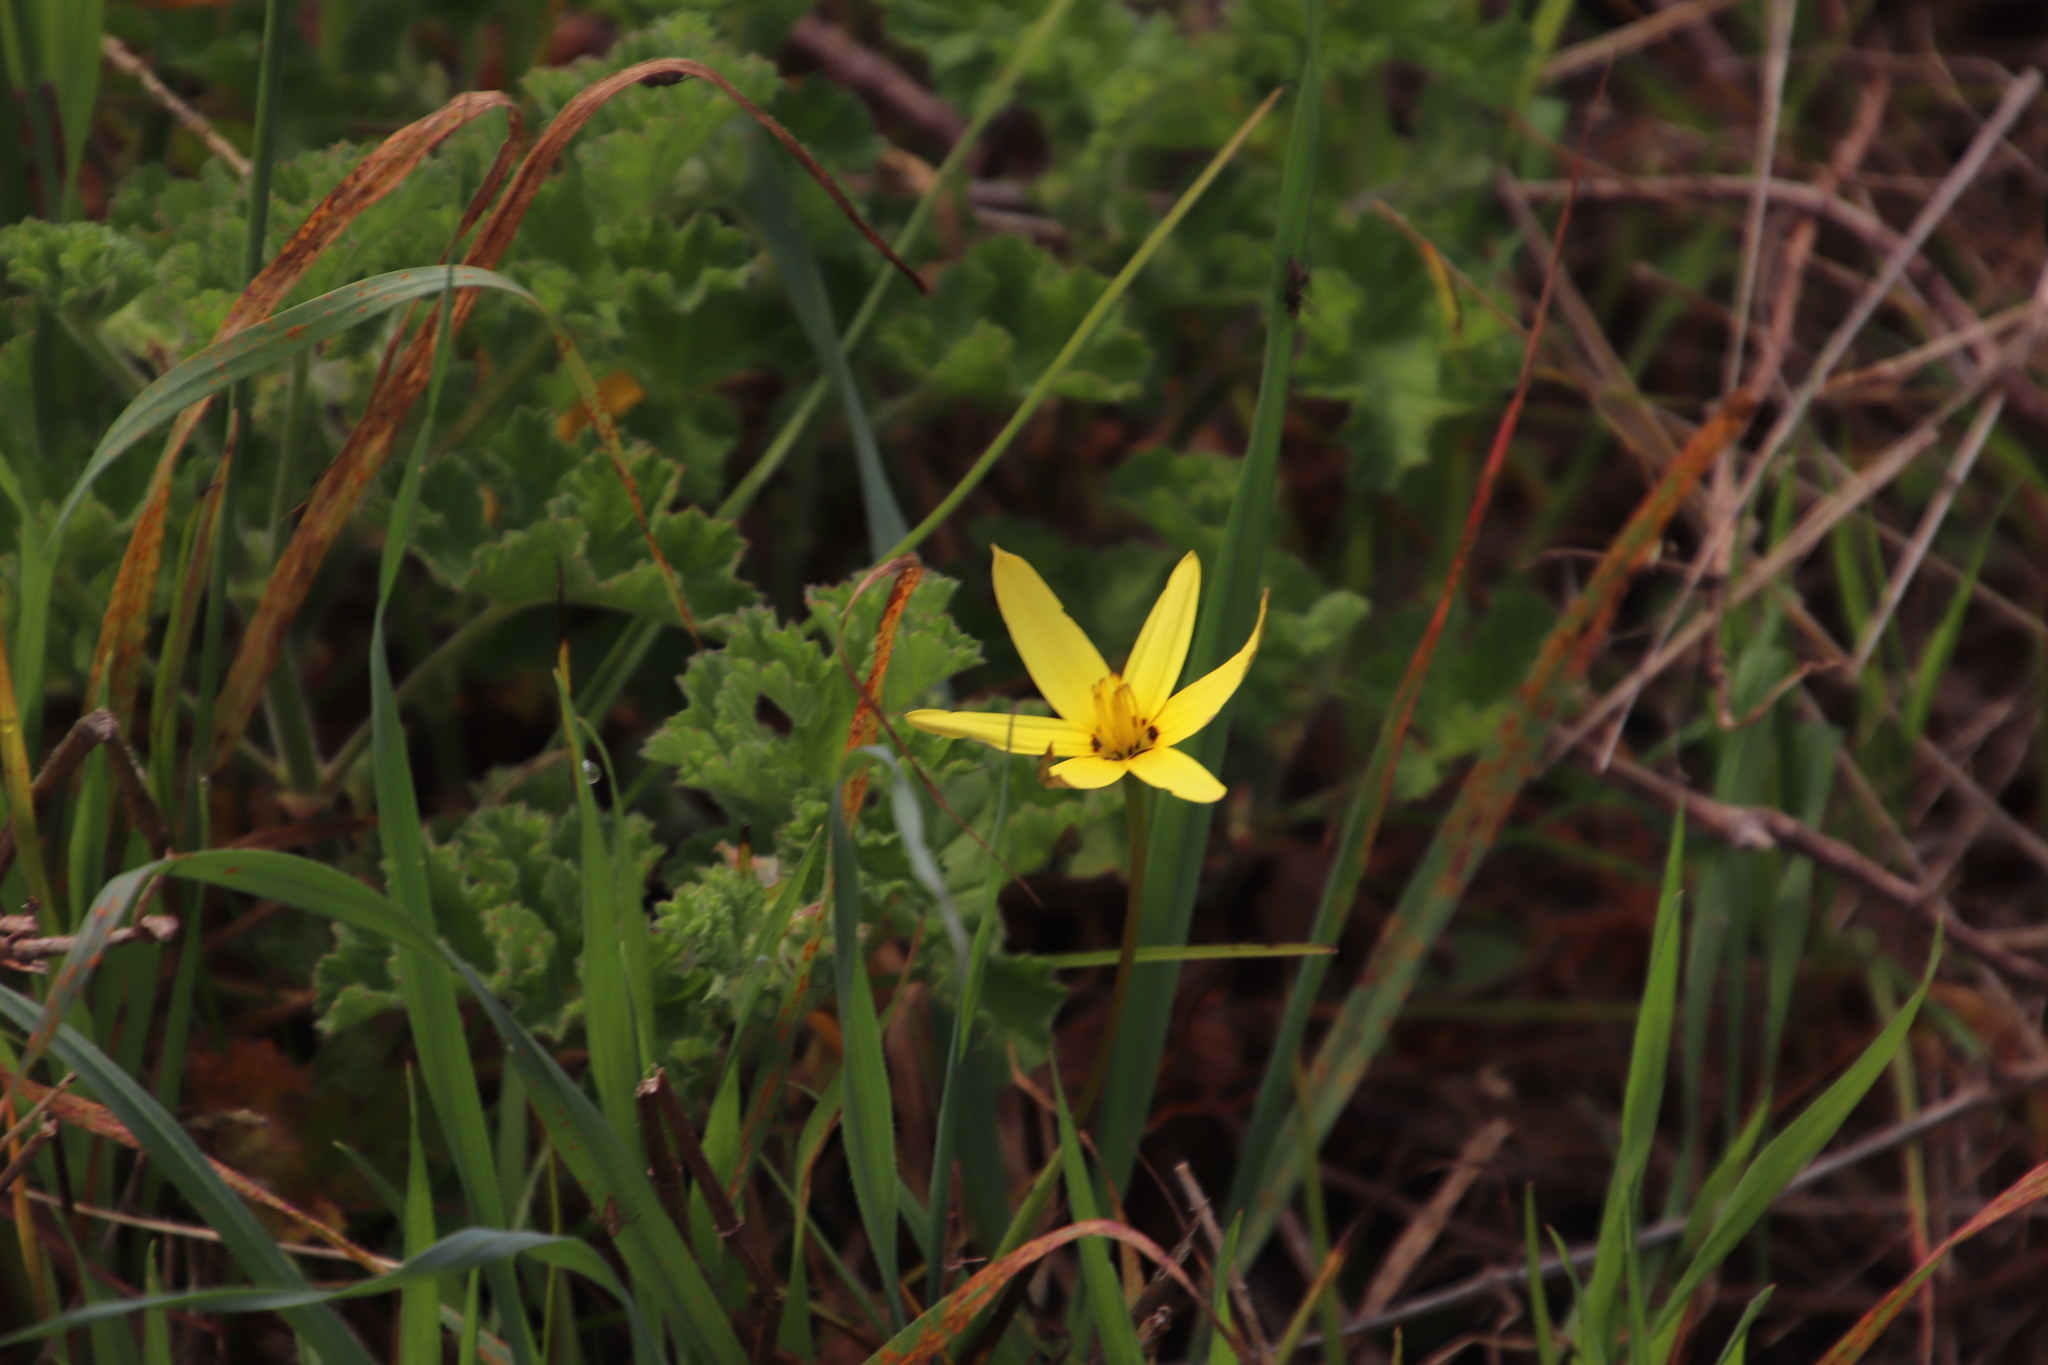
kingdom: Plantae
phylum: Tracheophyta
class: Liliopsida
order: Asparagales
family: Hypoxidaceae
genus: Pauridia
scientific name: Pauridia capensis
